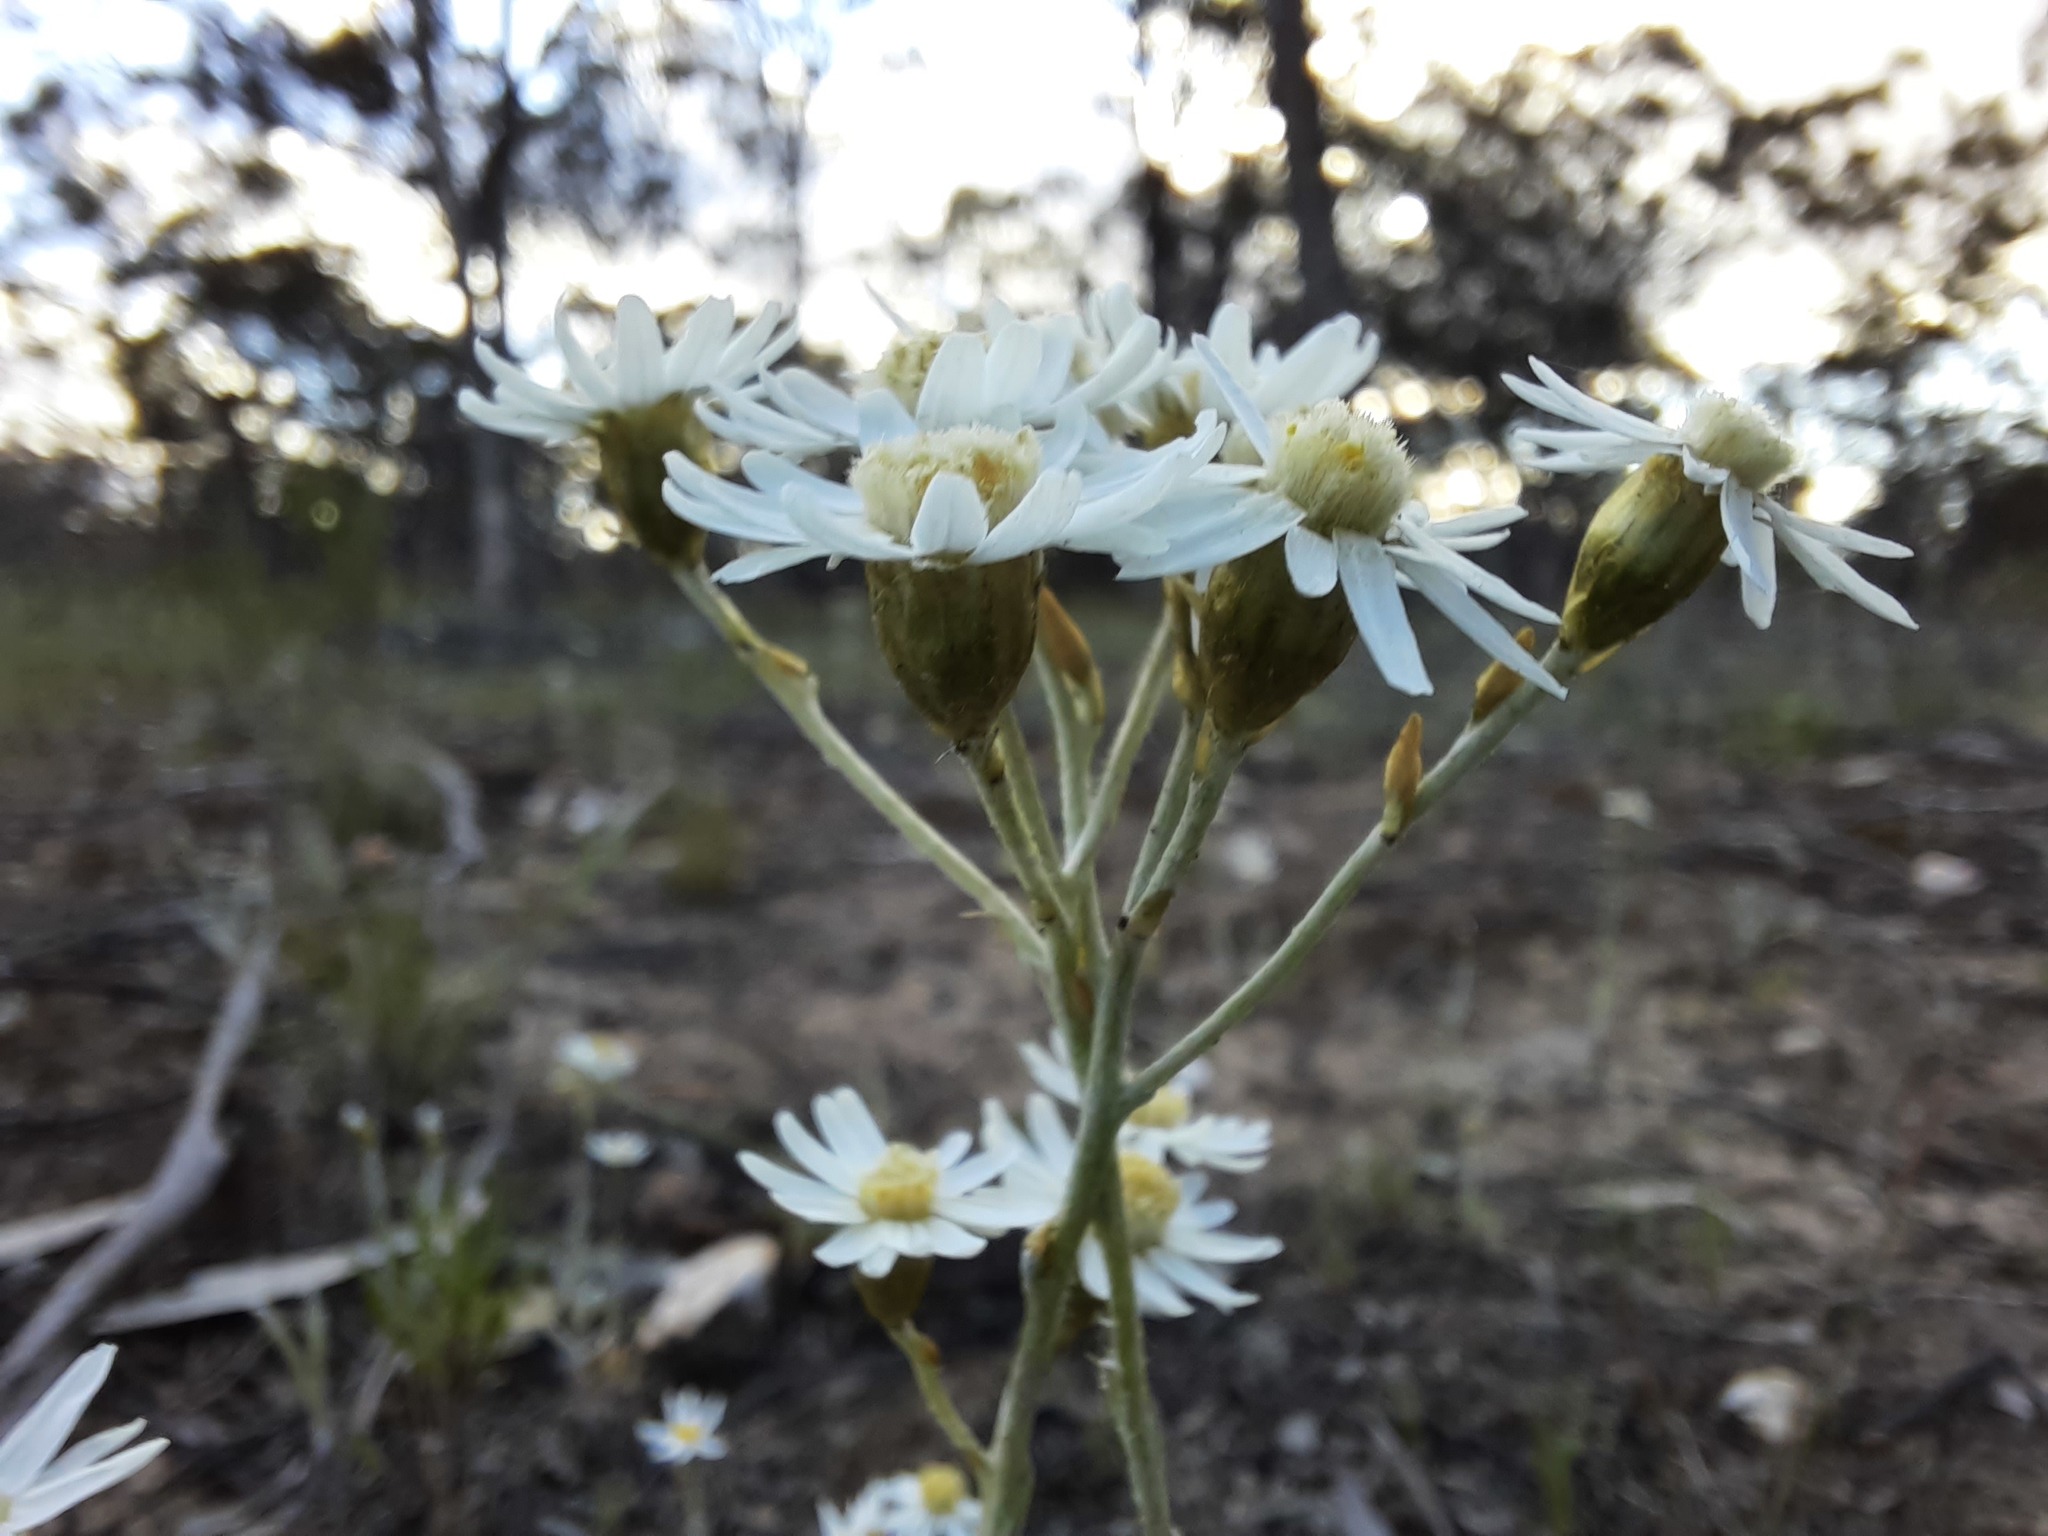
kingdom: Plantae
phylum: Tracheophyta
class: Magnoliopsida
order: Asterales
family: Asteraceae
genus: Rhodanthe
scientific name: Rhodanthe corymbiflora
